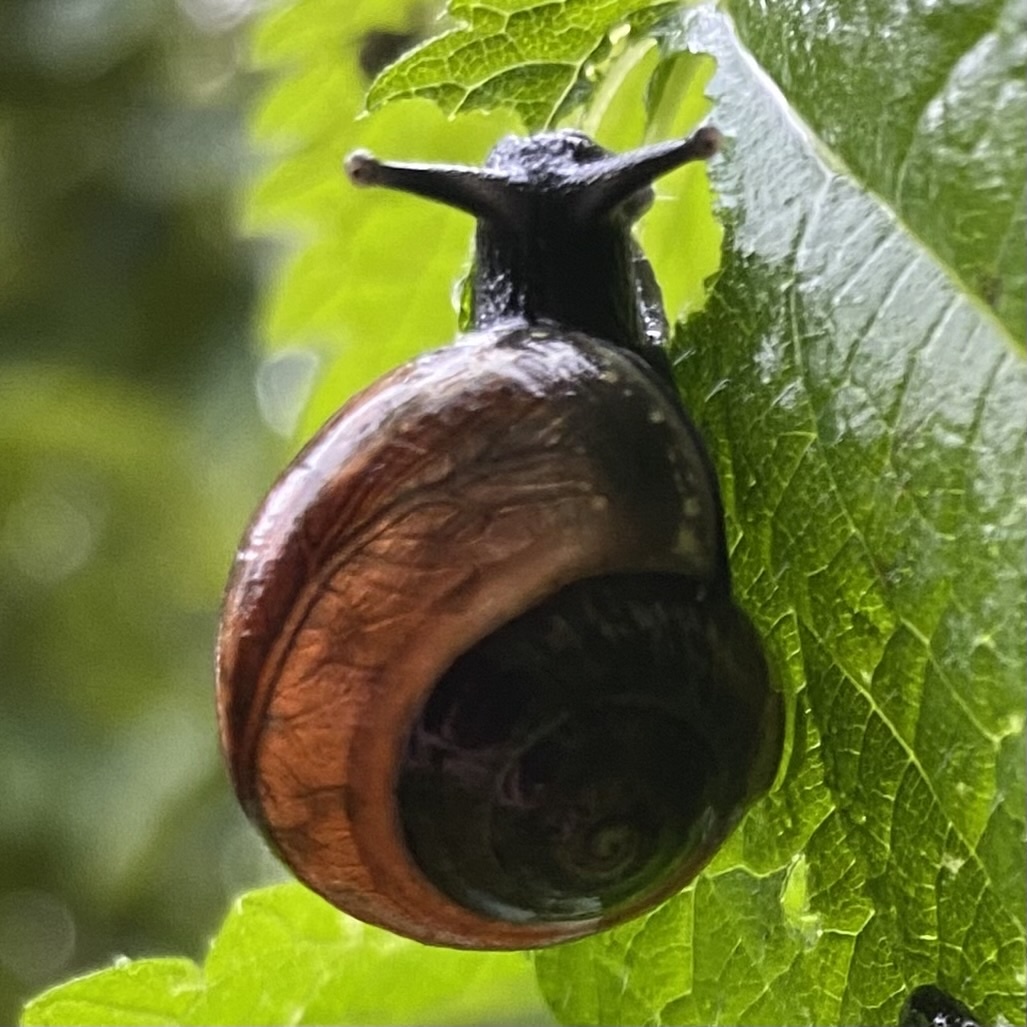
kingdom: Animalia
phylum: Mollusca
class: Gastropoda
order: Stylommatophora
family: Helicidae
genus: Arianta
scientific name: Arianta arbustorum
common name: Copse snail
